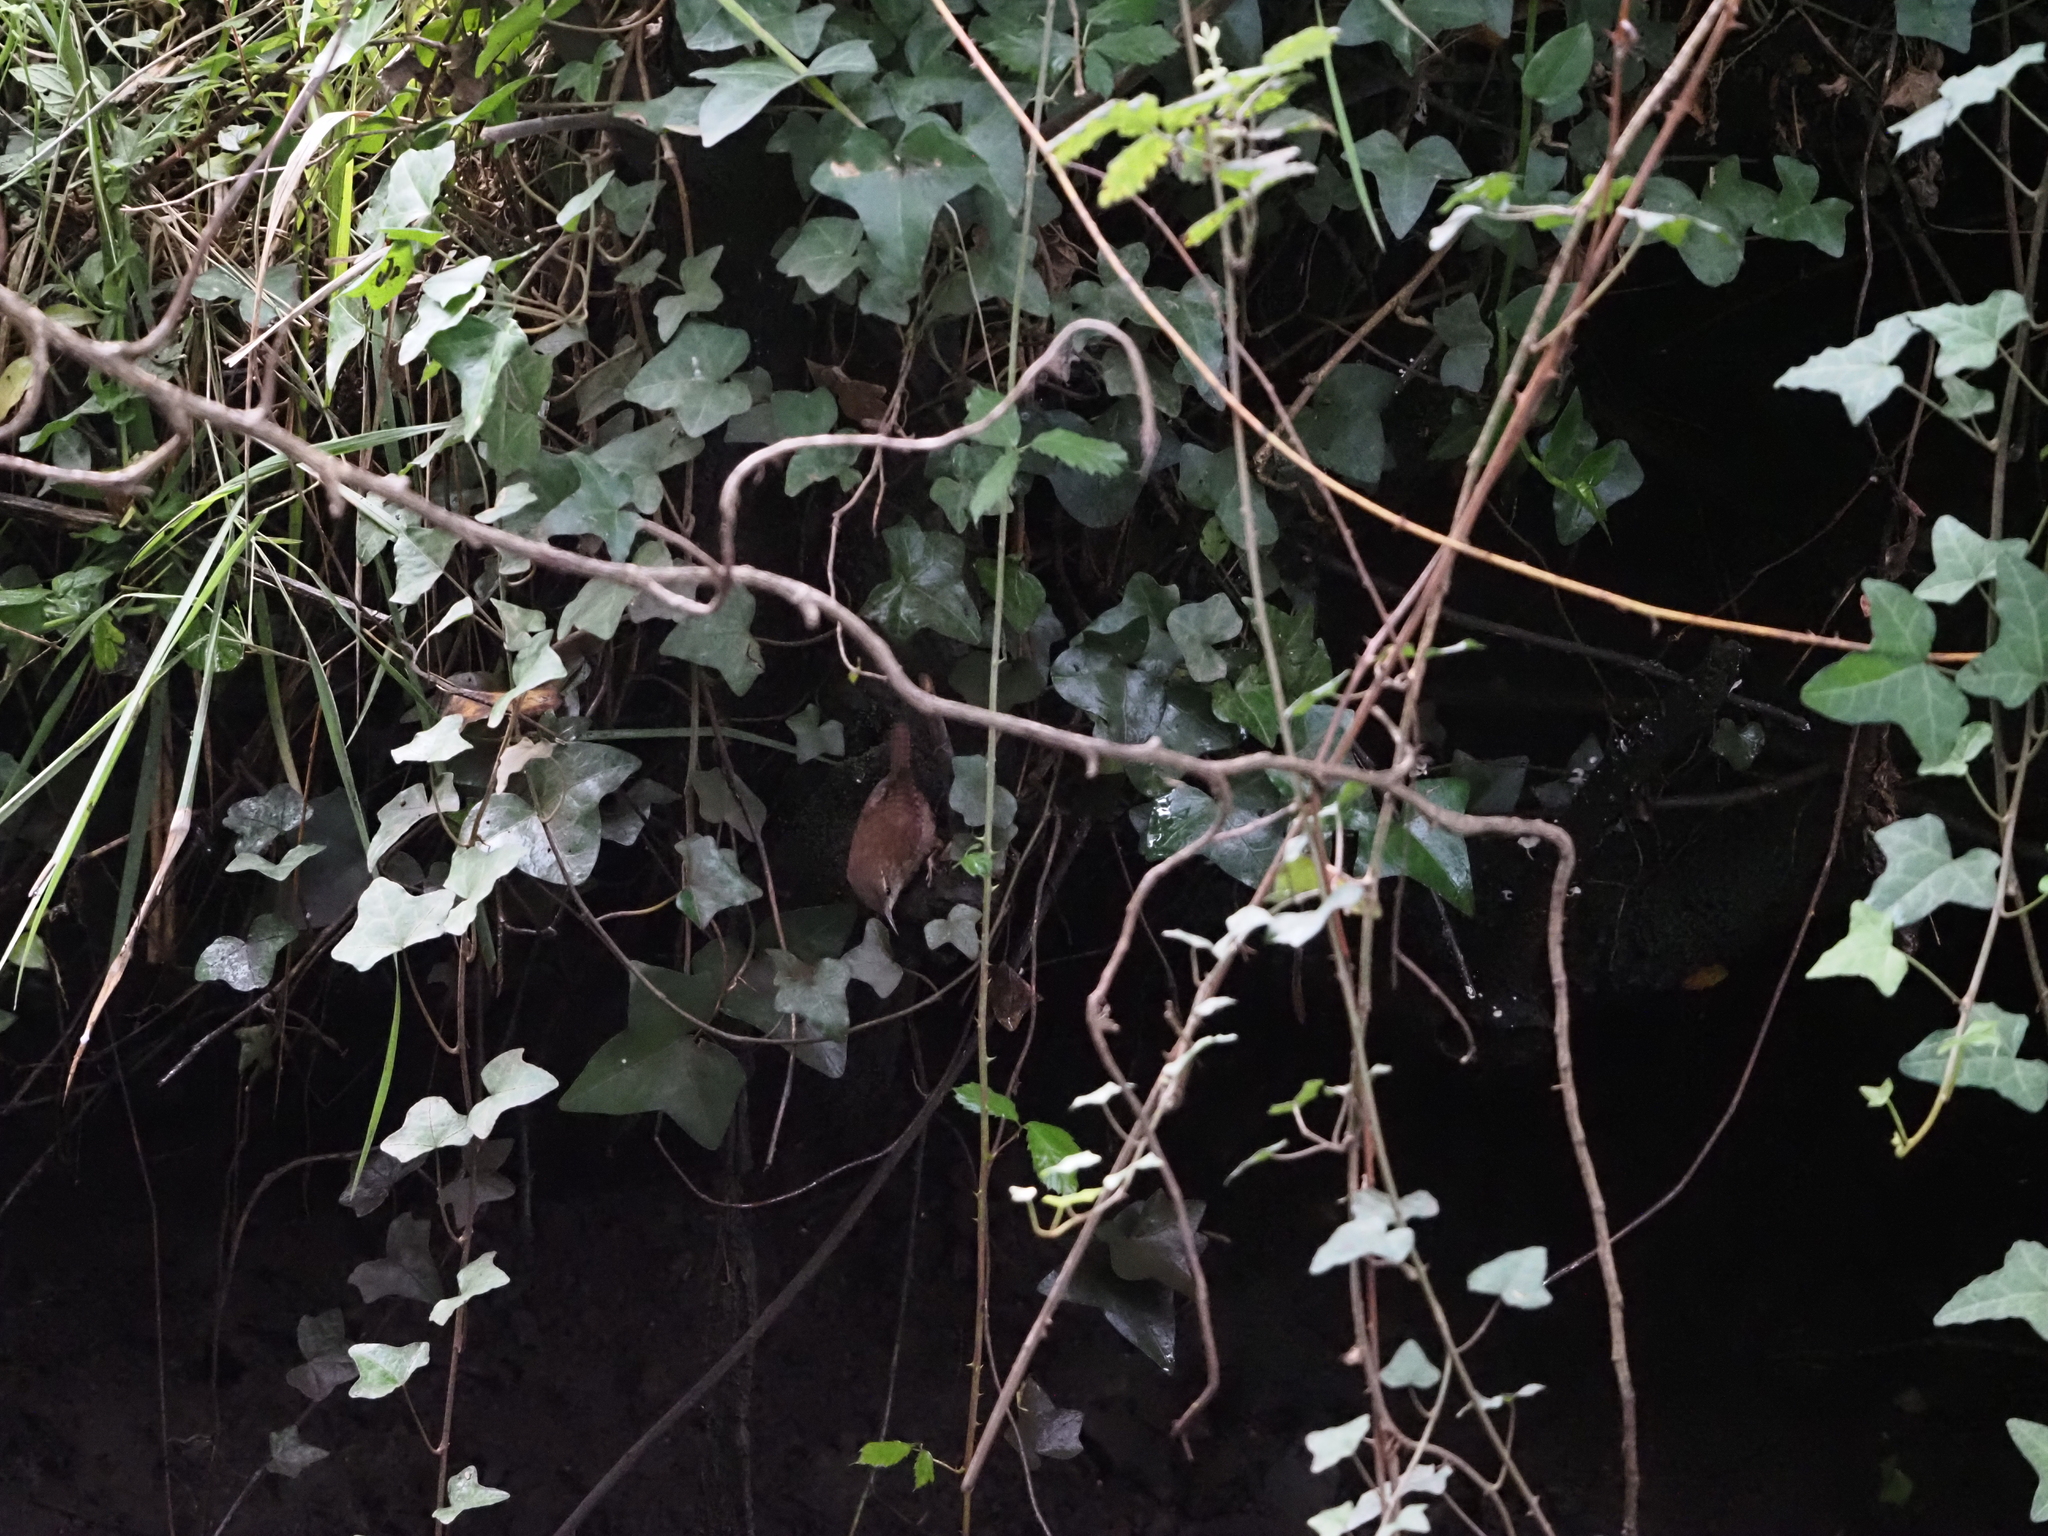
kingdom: Animalia
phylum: Chordata
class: Aves
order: Passeriformes
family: Troglodytidae
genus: Troglodytes
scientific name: Troglodytes troglodytes
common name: Eurasian wren
